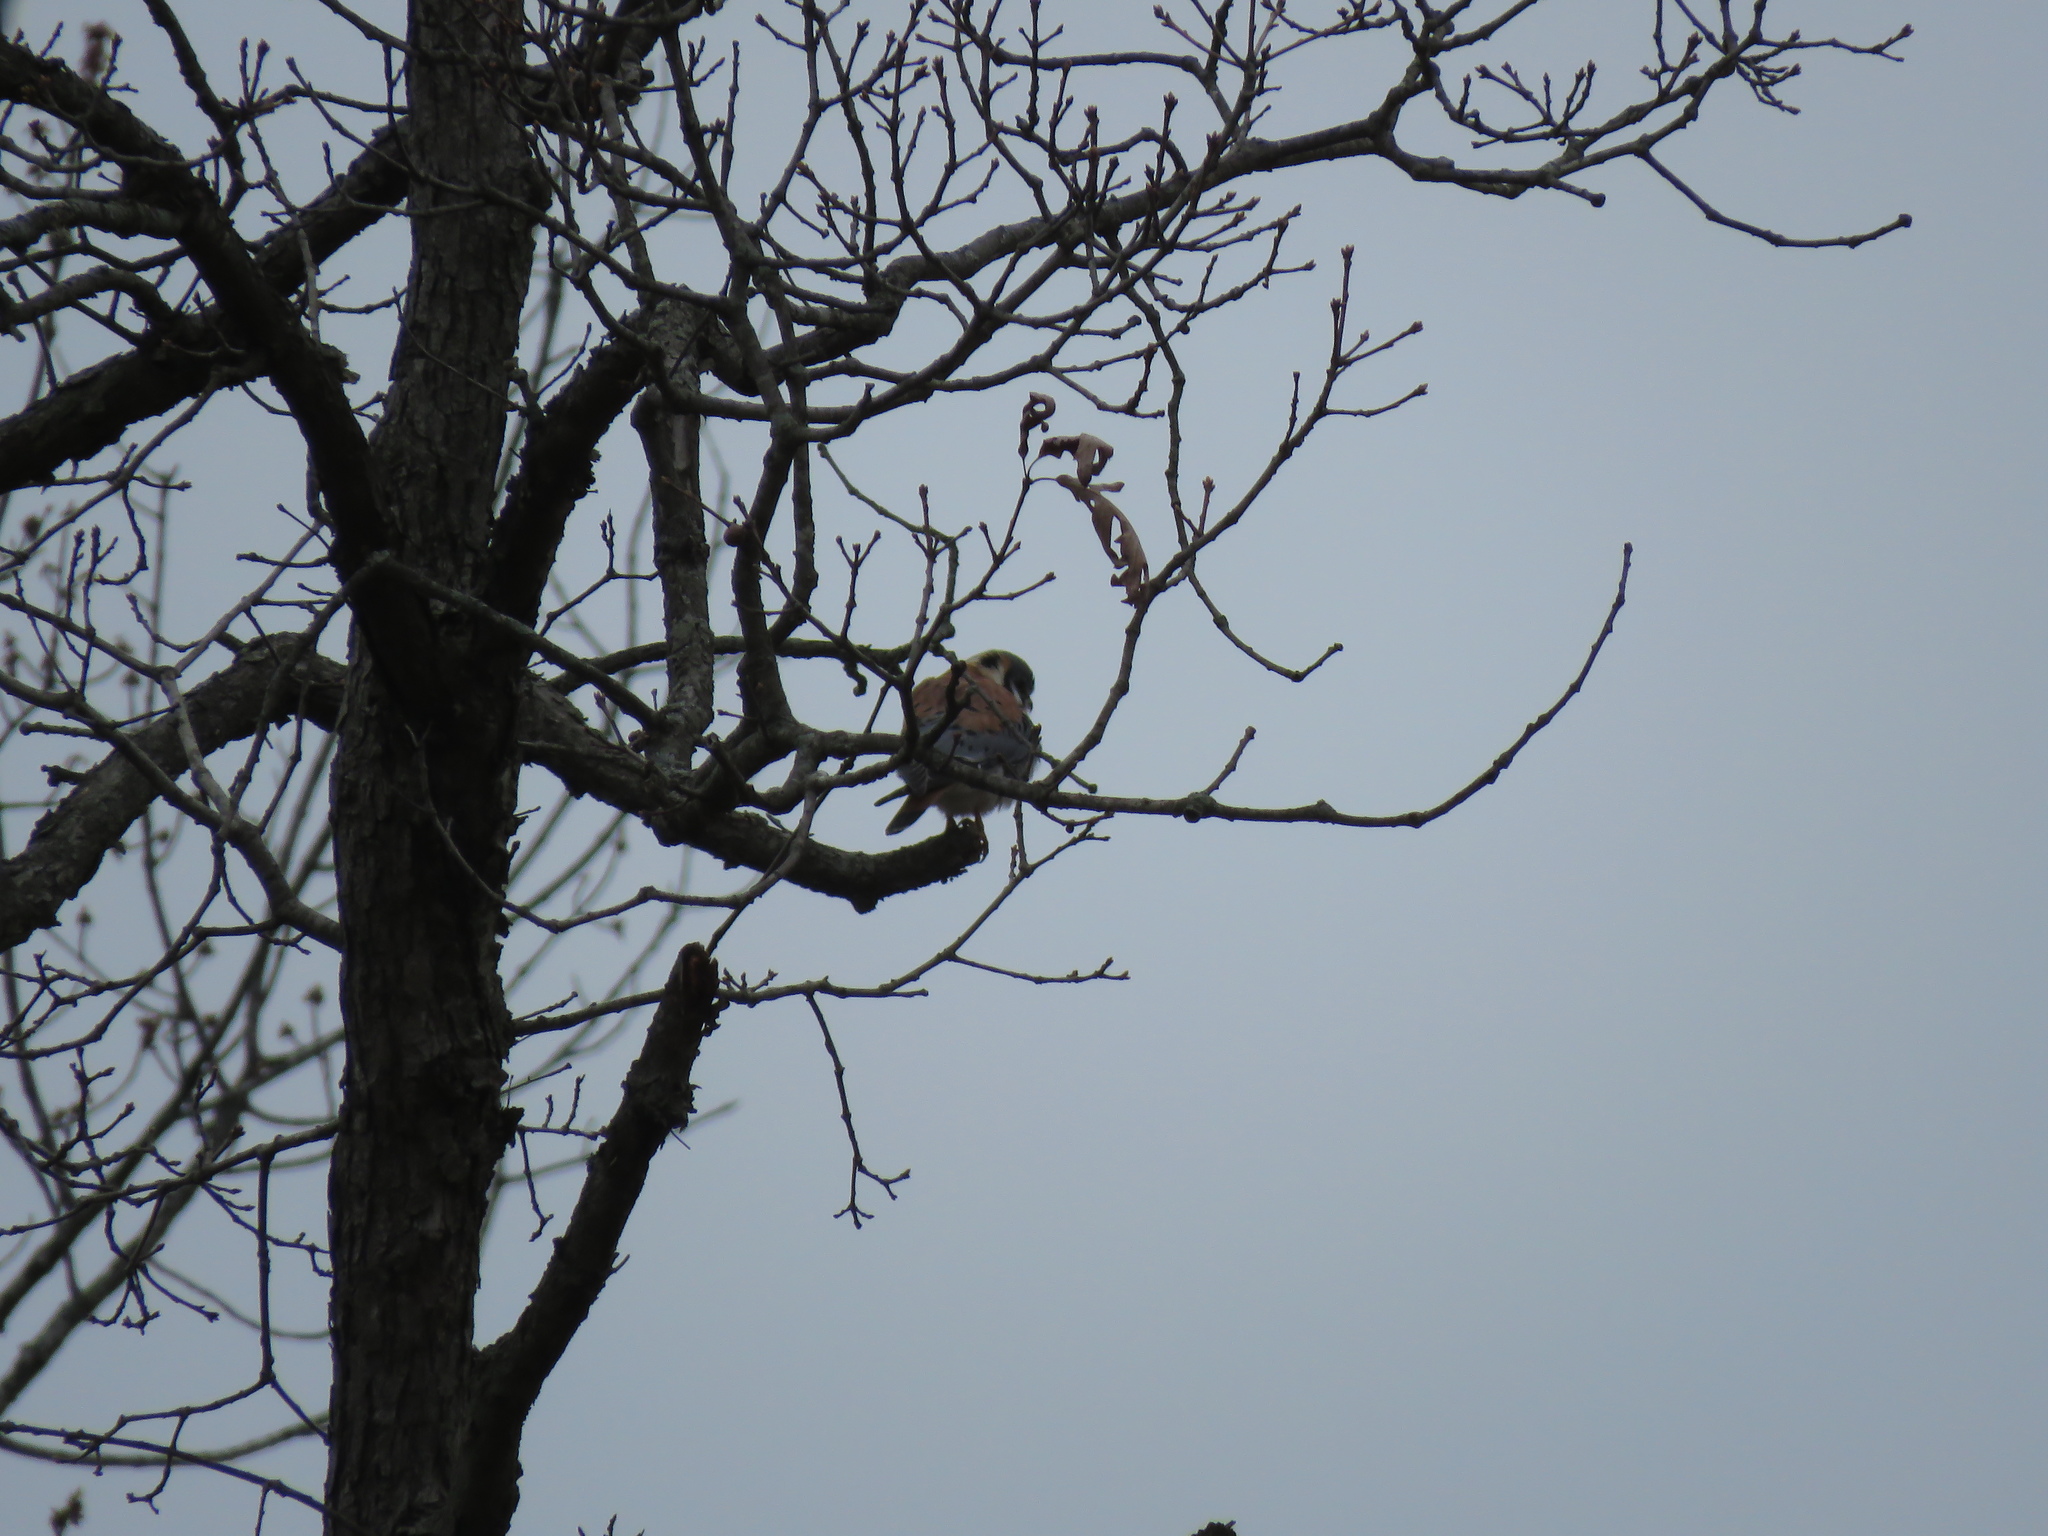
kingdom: Animalia
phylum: Chordata
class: Aves
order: Falconiformes
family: Falconidae
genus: Falco
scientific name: Falco sparverius
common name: American kestrel
